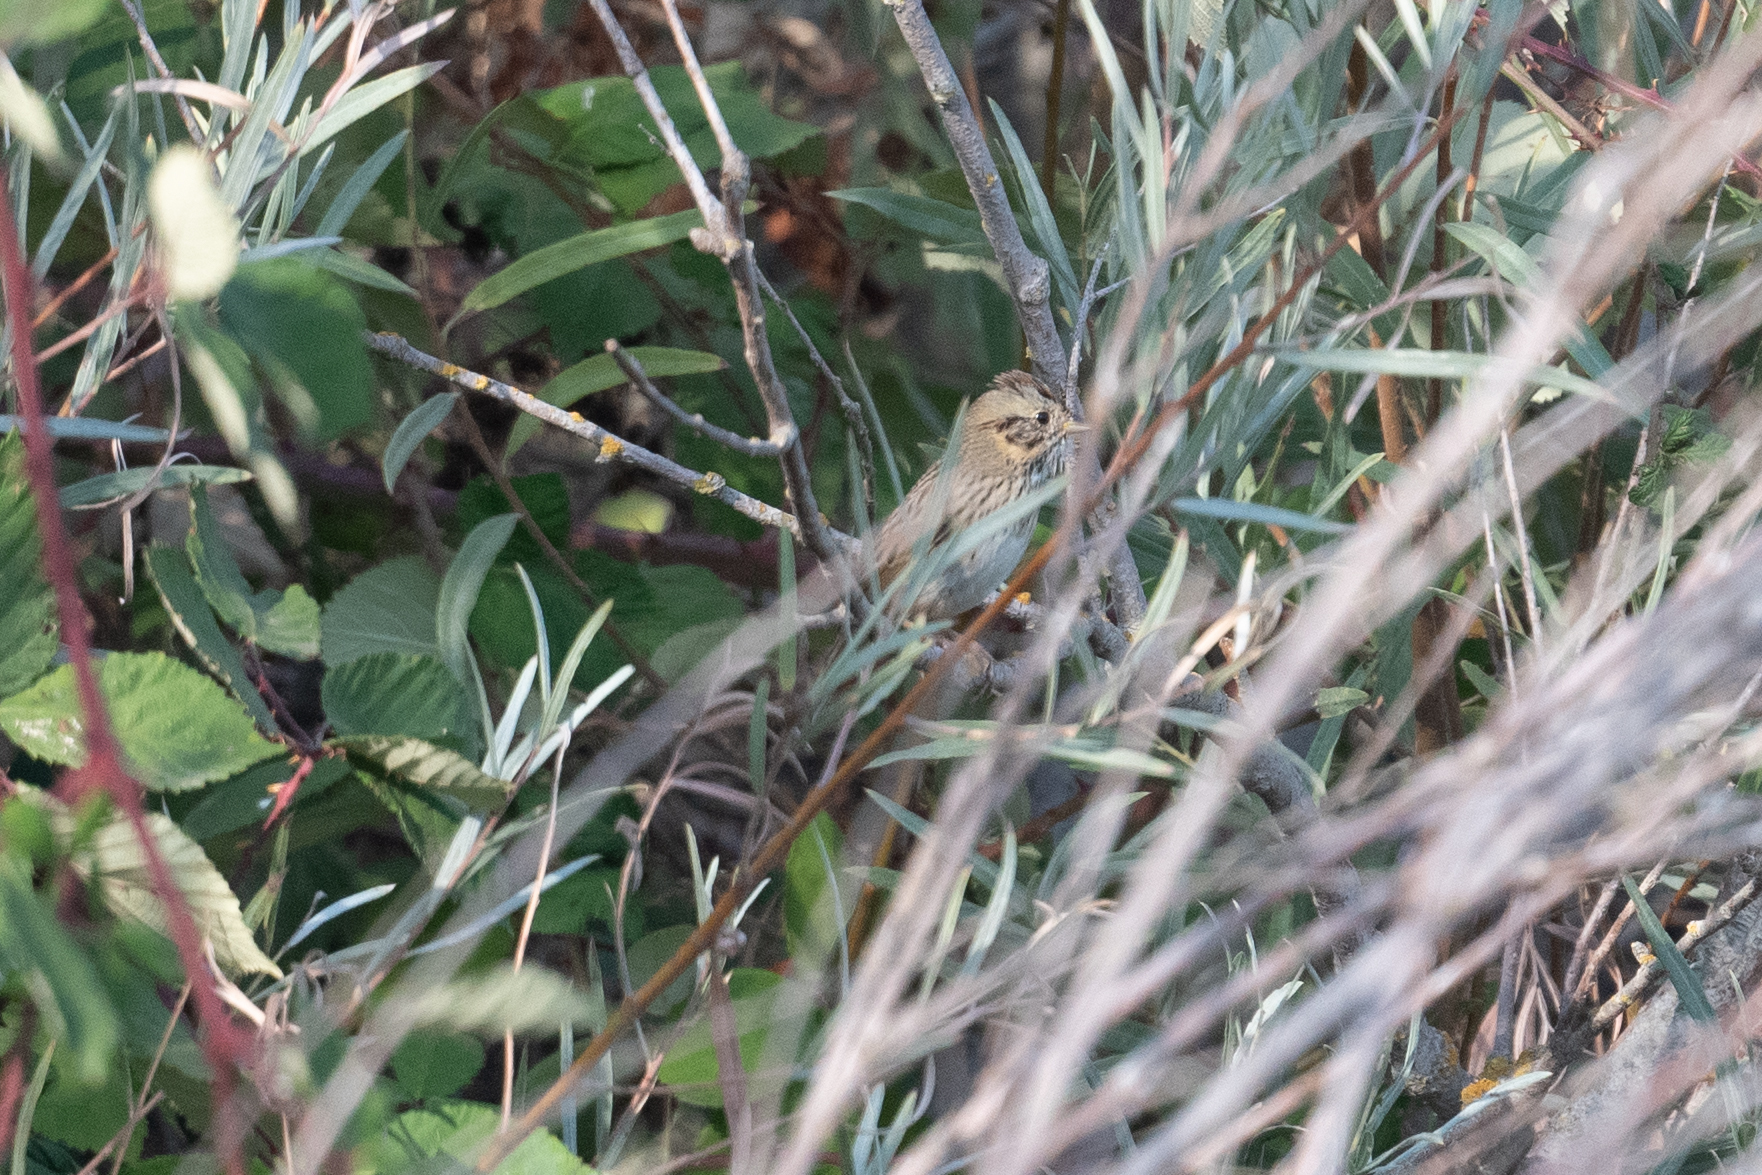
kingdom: Animalia
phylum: Chordata
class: Aves
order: Passeriformes
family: Passerellidae
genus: Melospiza
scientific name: Melospiza lincolnii
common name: Lincoln's sparrow
